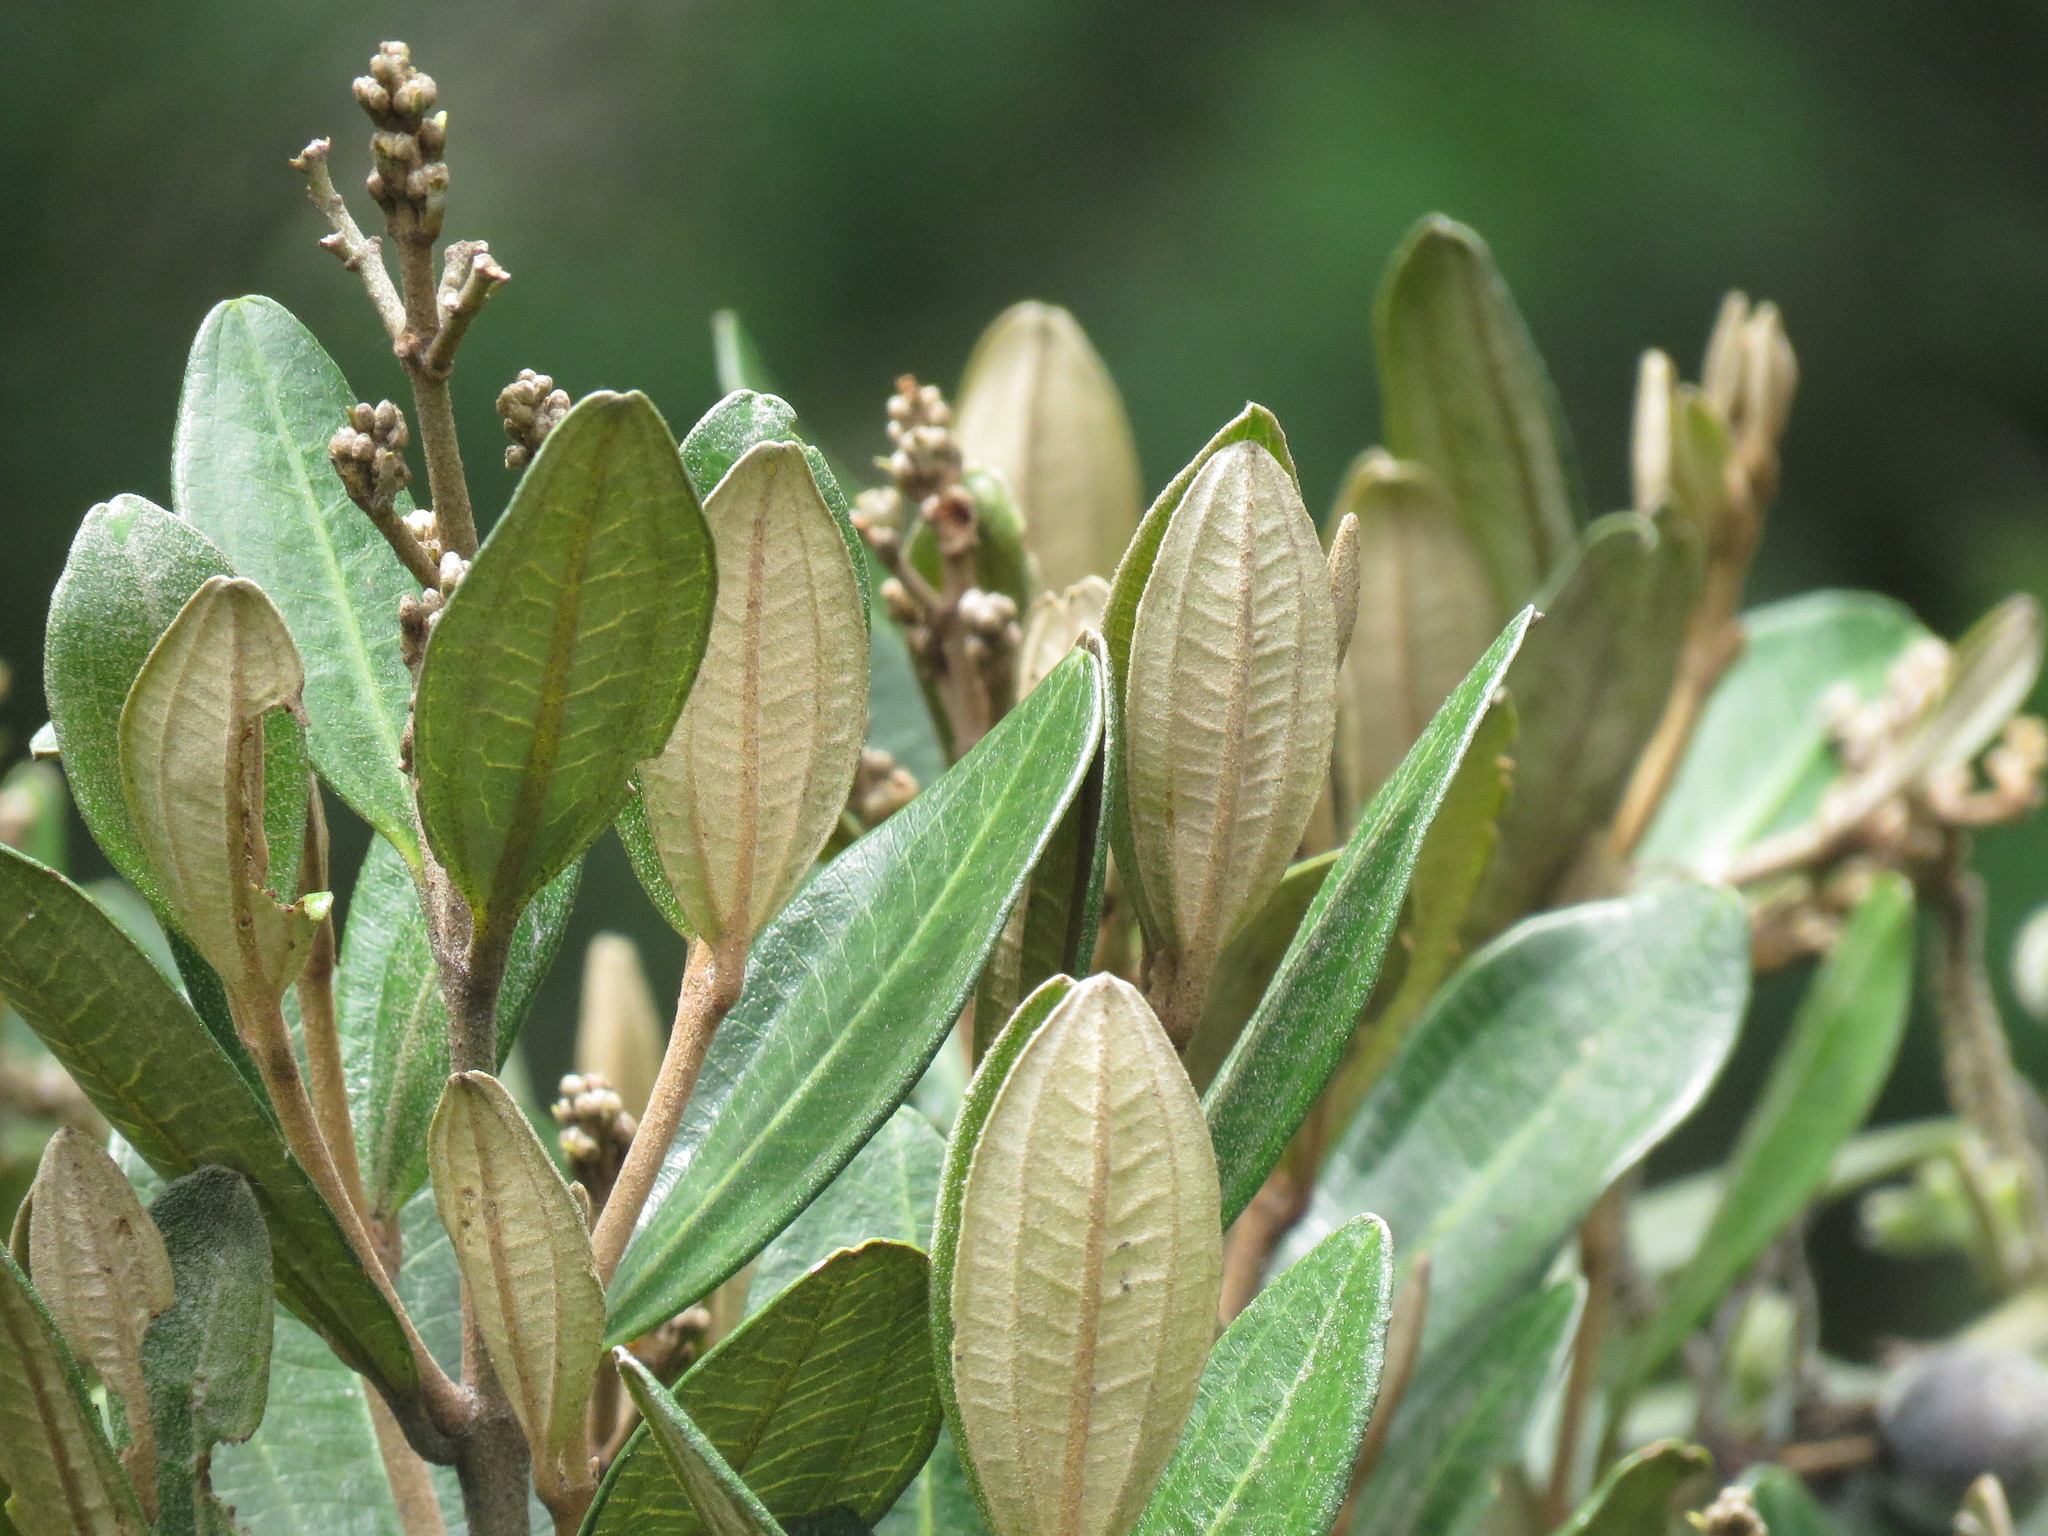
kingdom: Plantae
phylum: Tracheophyta
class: Magnoliopsida
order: Myrtales
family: Melastomataceae
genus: Miconia
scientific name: Miconia squamulosa
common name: Squamulose maya
